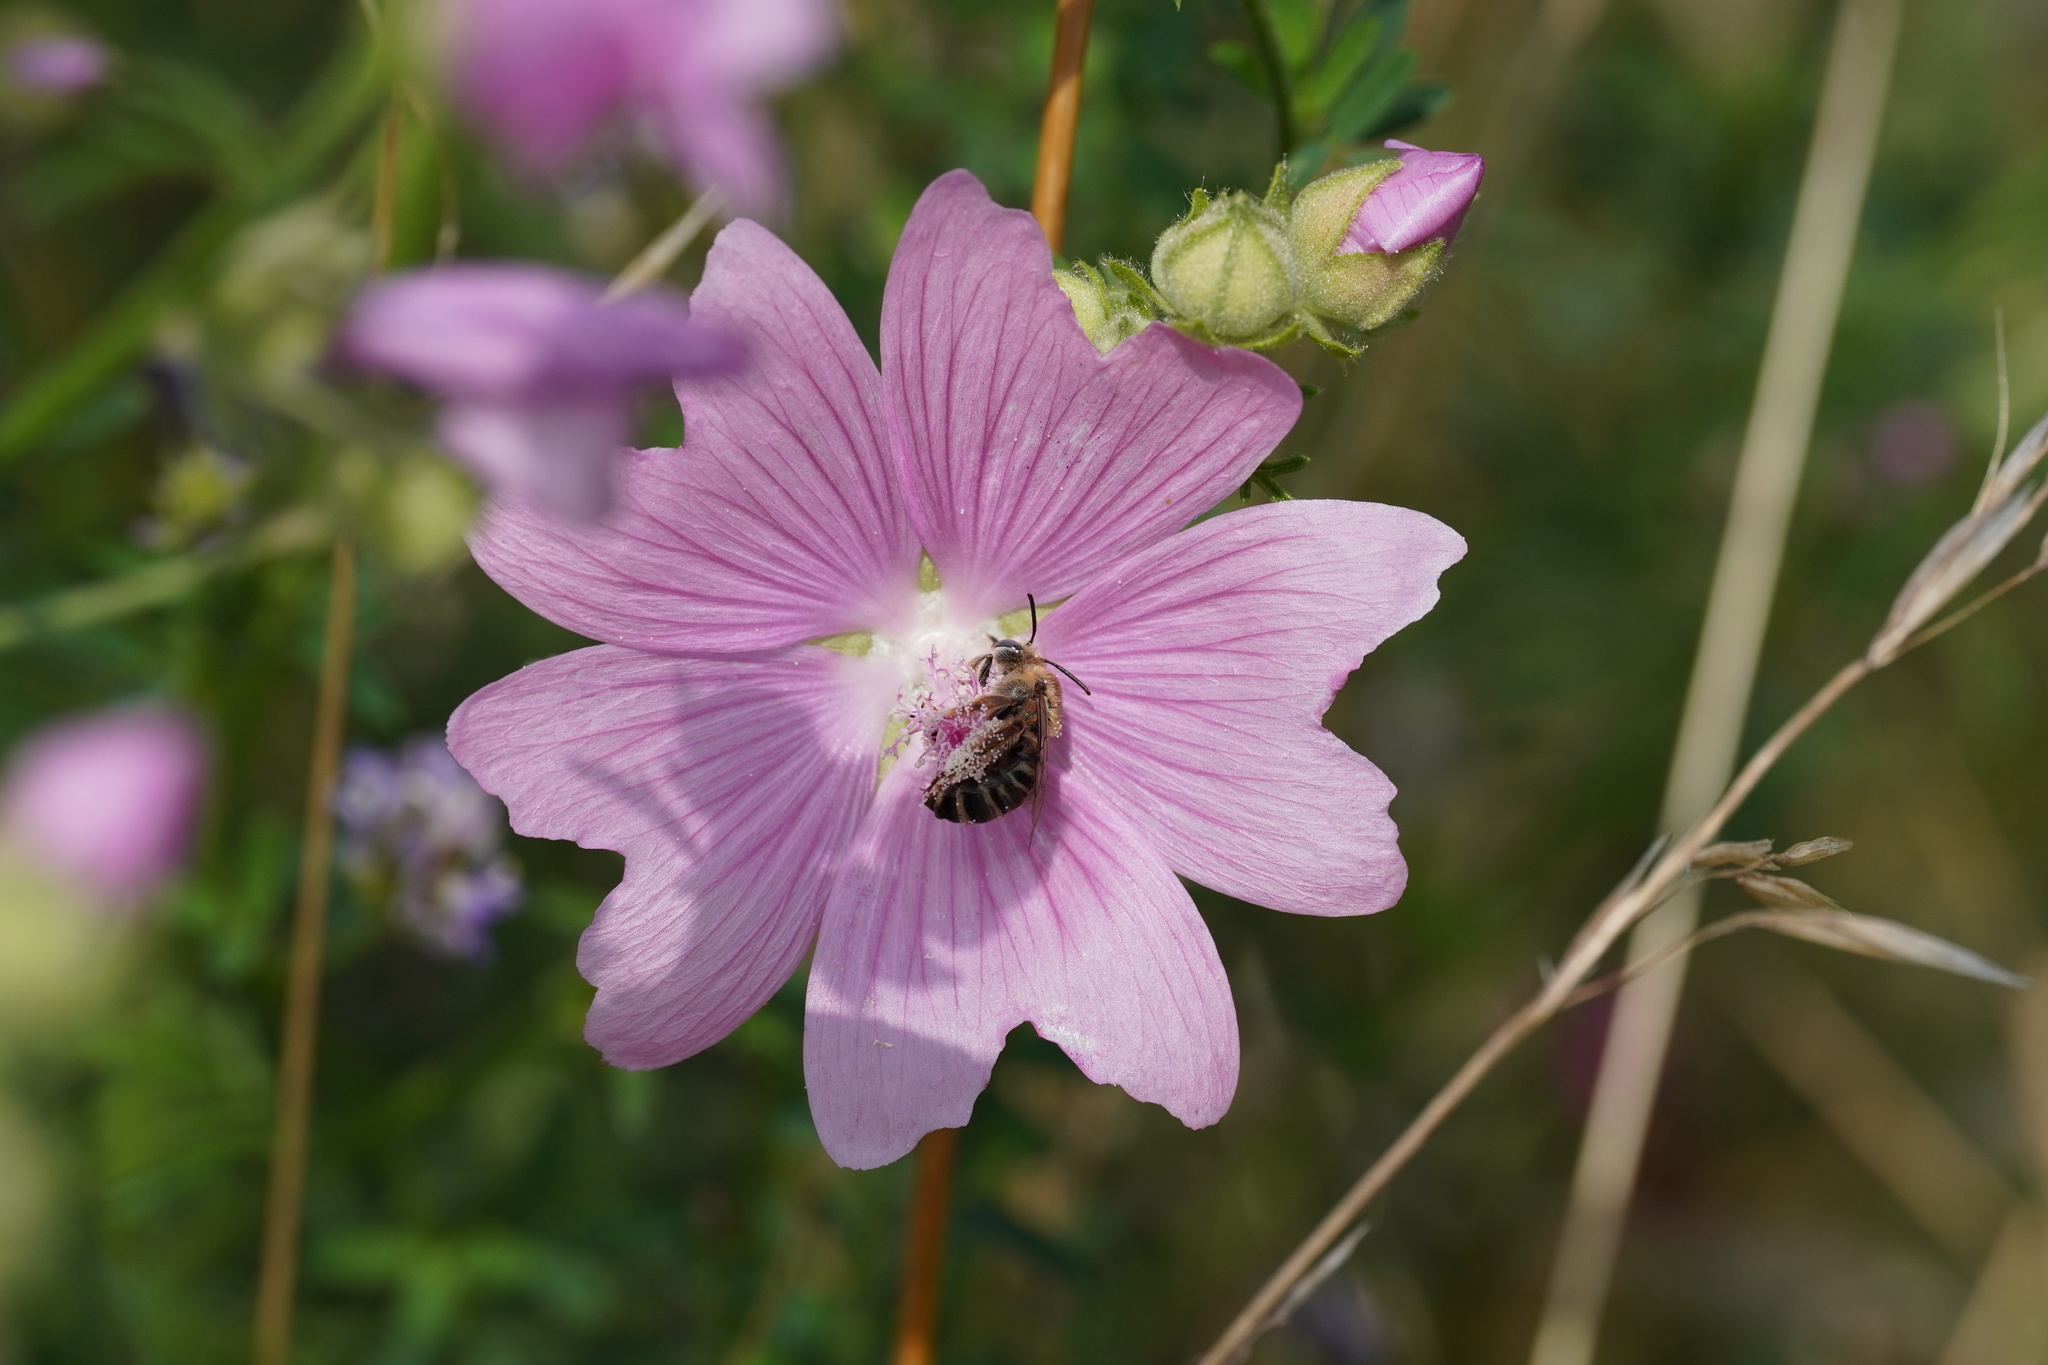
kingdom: Animalia
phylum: Arthropoda
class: Insecta
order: Hymenoptera
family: Apidae
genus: Tetralonia
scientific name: Tetralonia malvae
